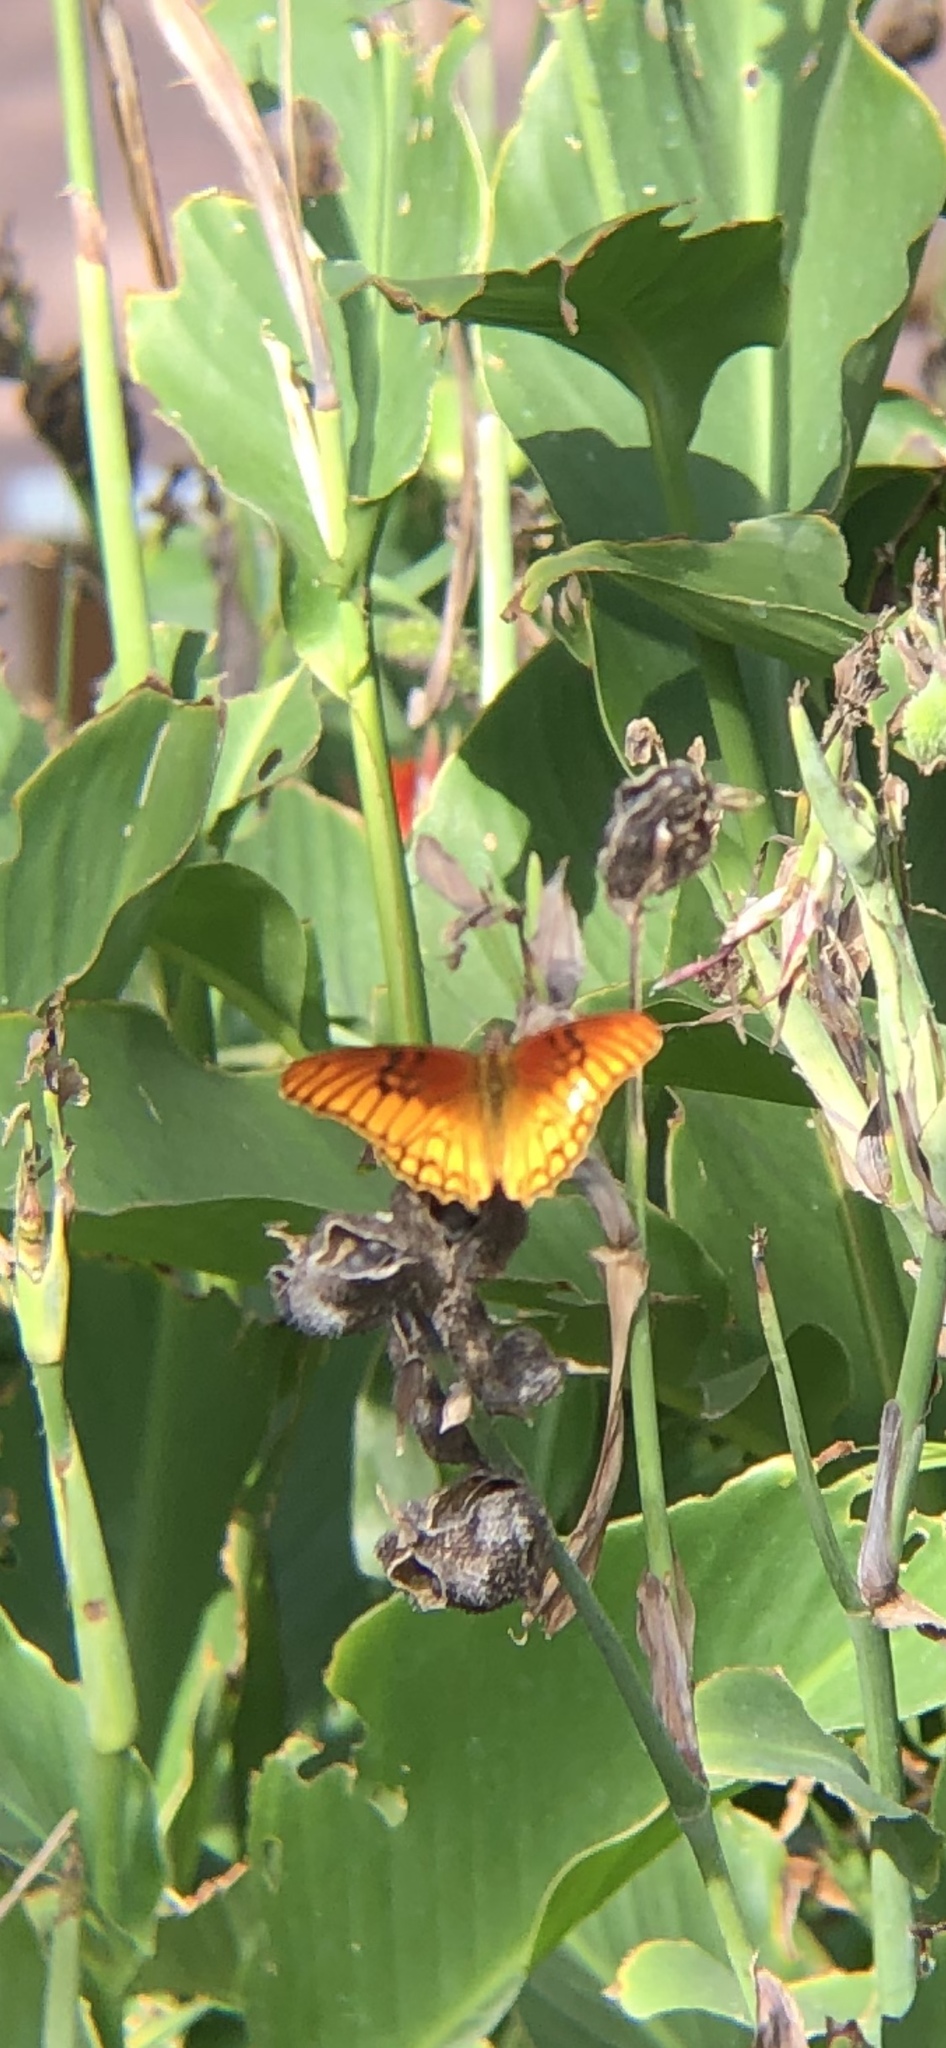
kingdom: Animalia
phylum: Arthropoda
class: Insecta
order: Lepidoptera
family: Nymphalidae
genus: Dione
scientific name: Dione moneta
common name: Mexican silverspot
